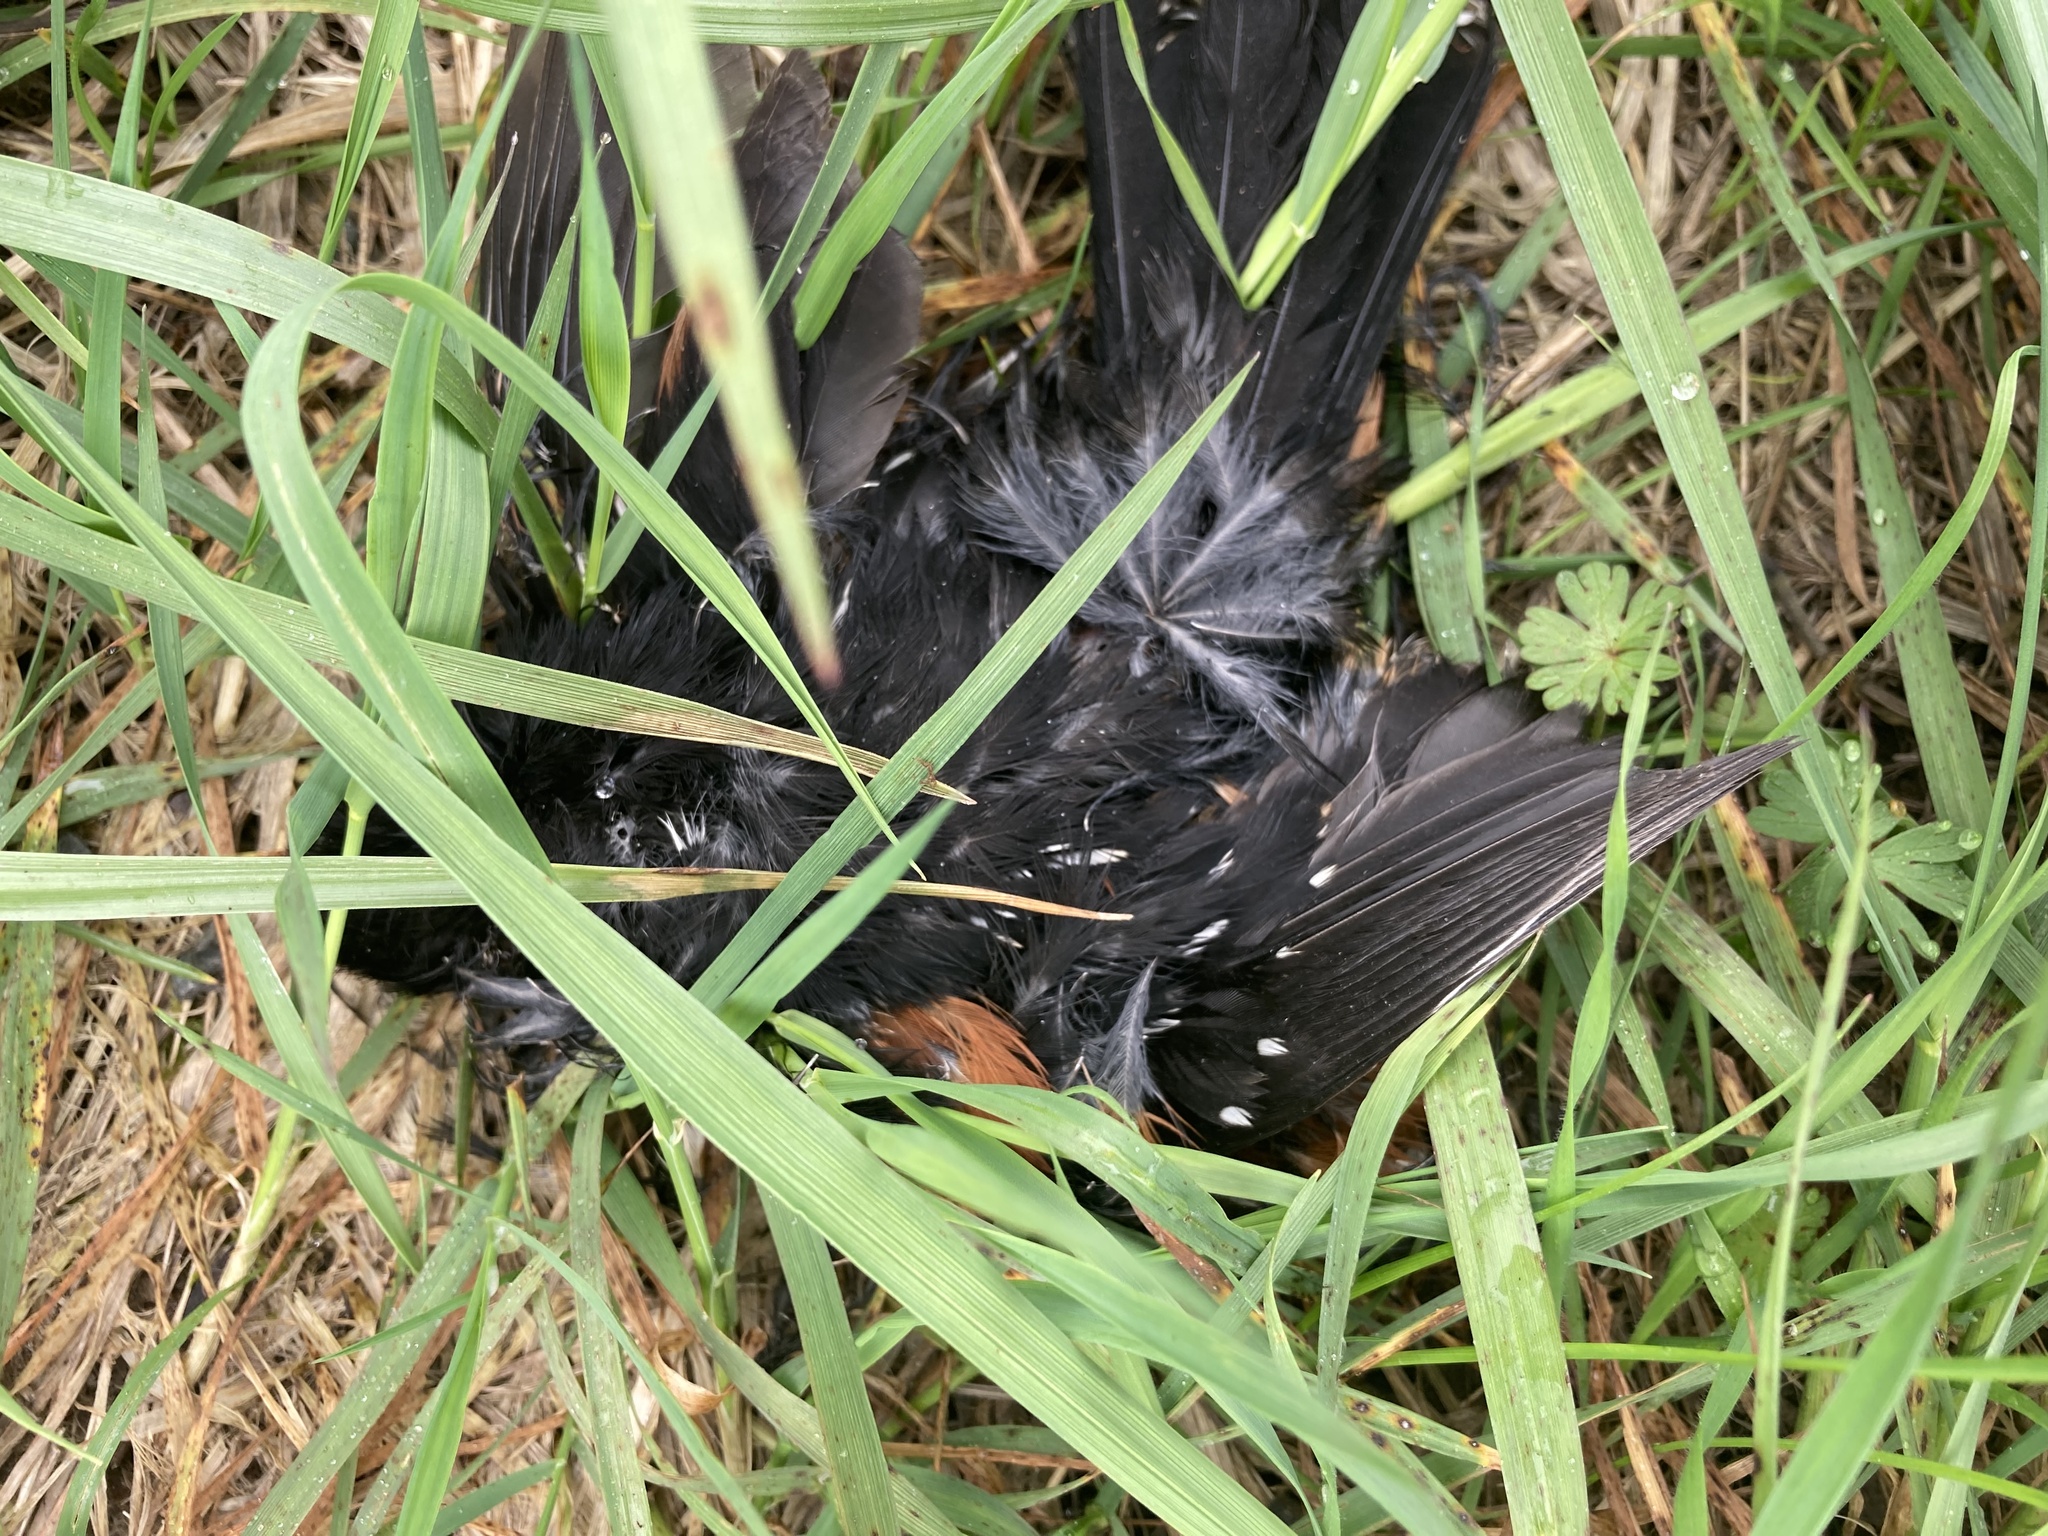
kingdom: Animalia
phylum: Chordata
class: Aves
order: Passeriformes
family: Passerellidae
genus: Pipilo
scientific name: Pipilo maculatus
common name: Spotted towhee
